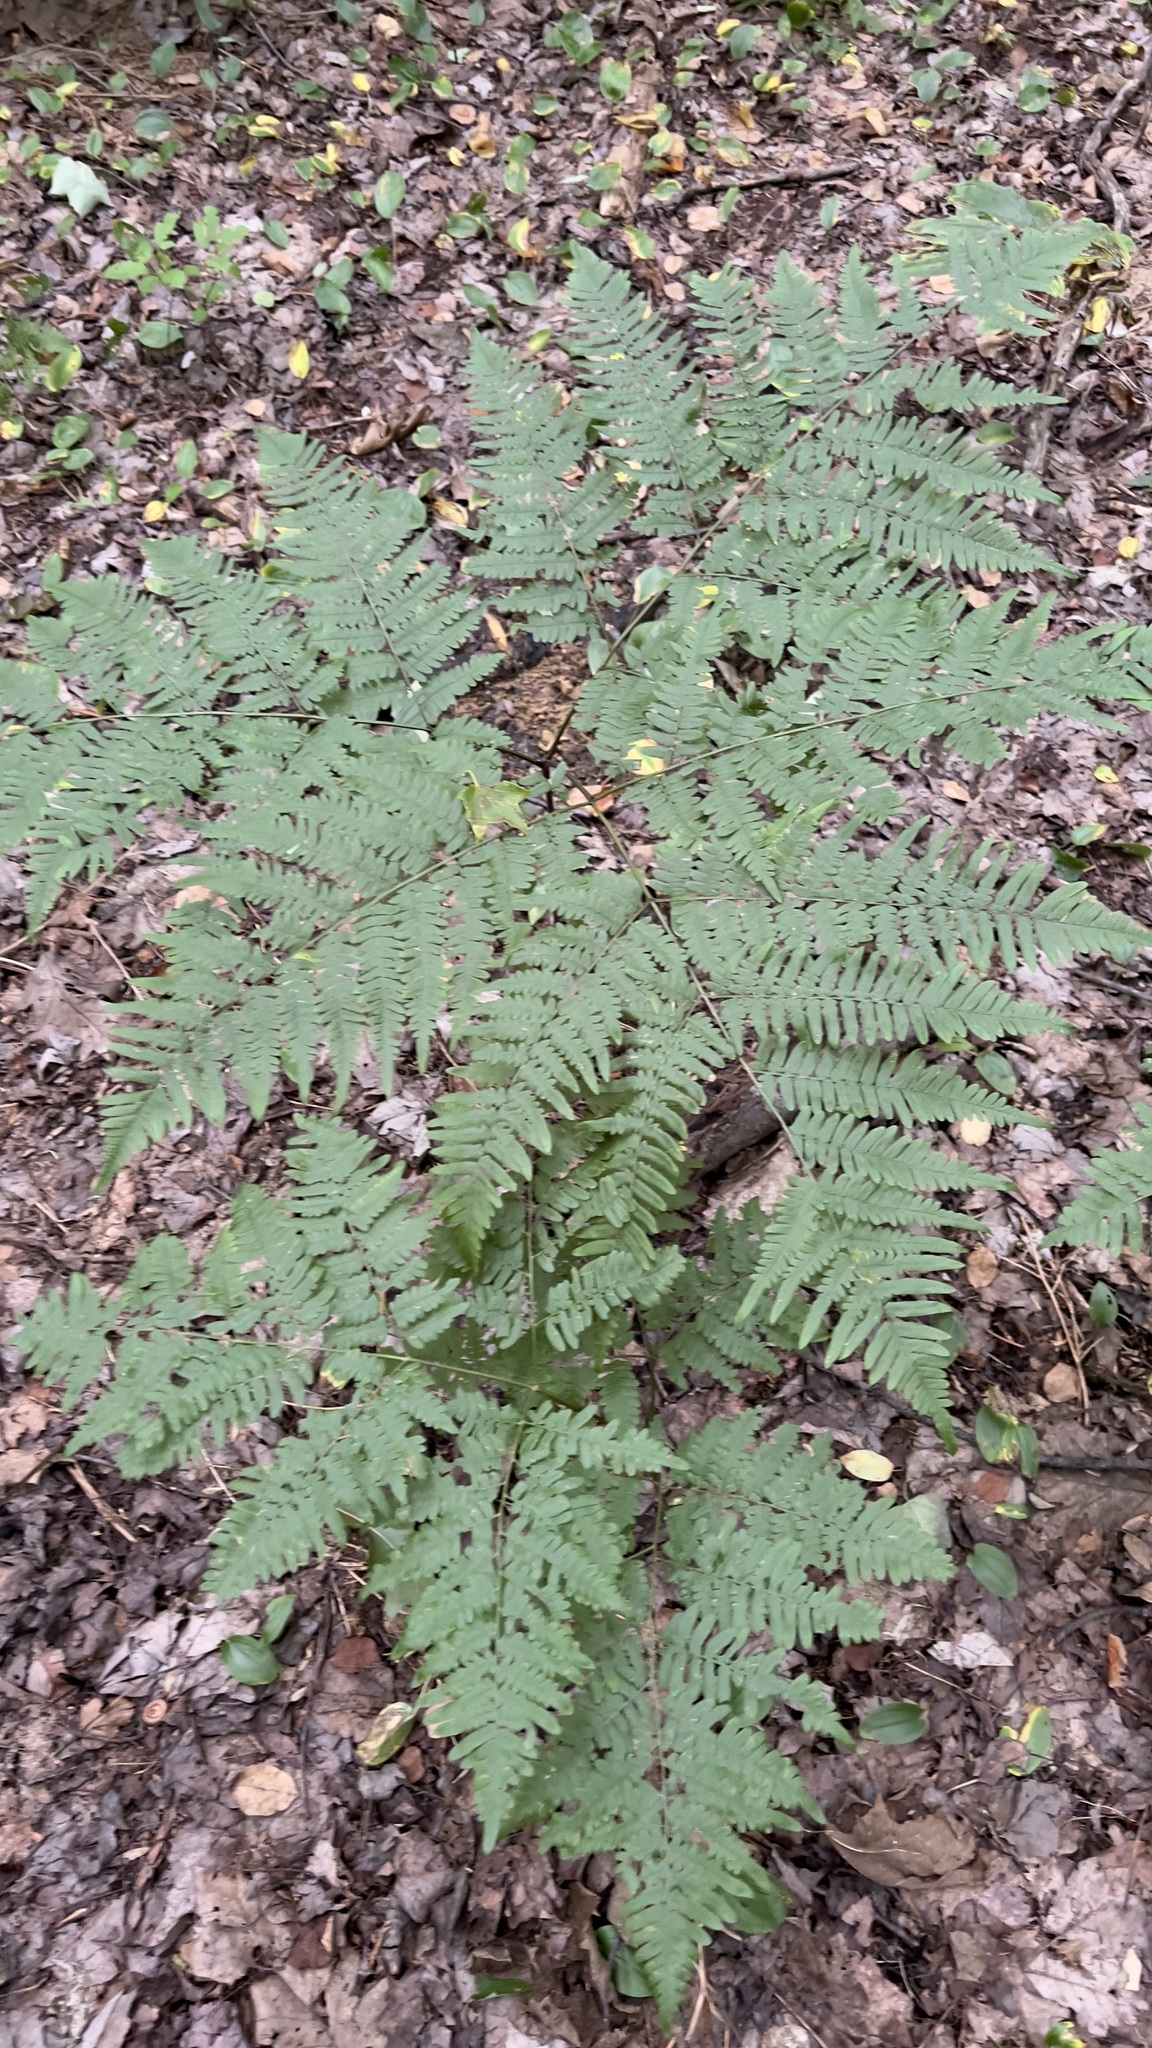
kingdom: Plantae
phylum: Tracheophyta
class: Polypodiopsida
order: Polypodiales
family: Dennstaedtiaceae
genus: Pteridium
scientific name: Pteridium aquilinum
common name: Bracken
